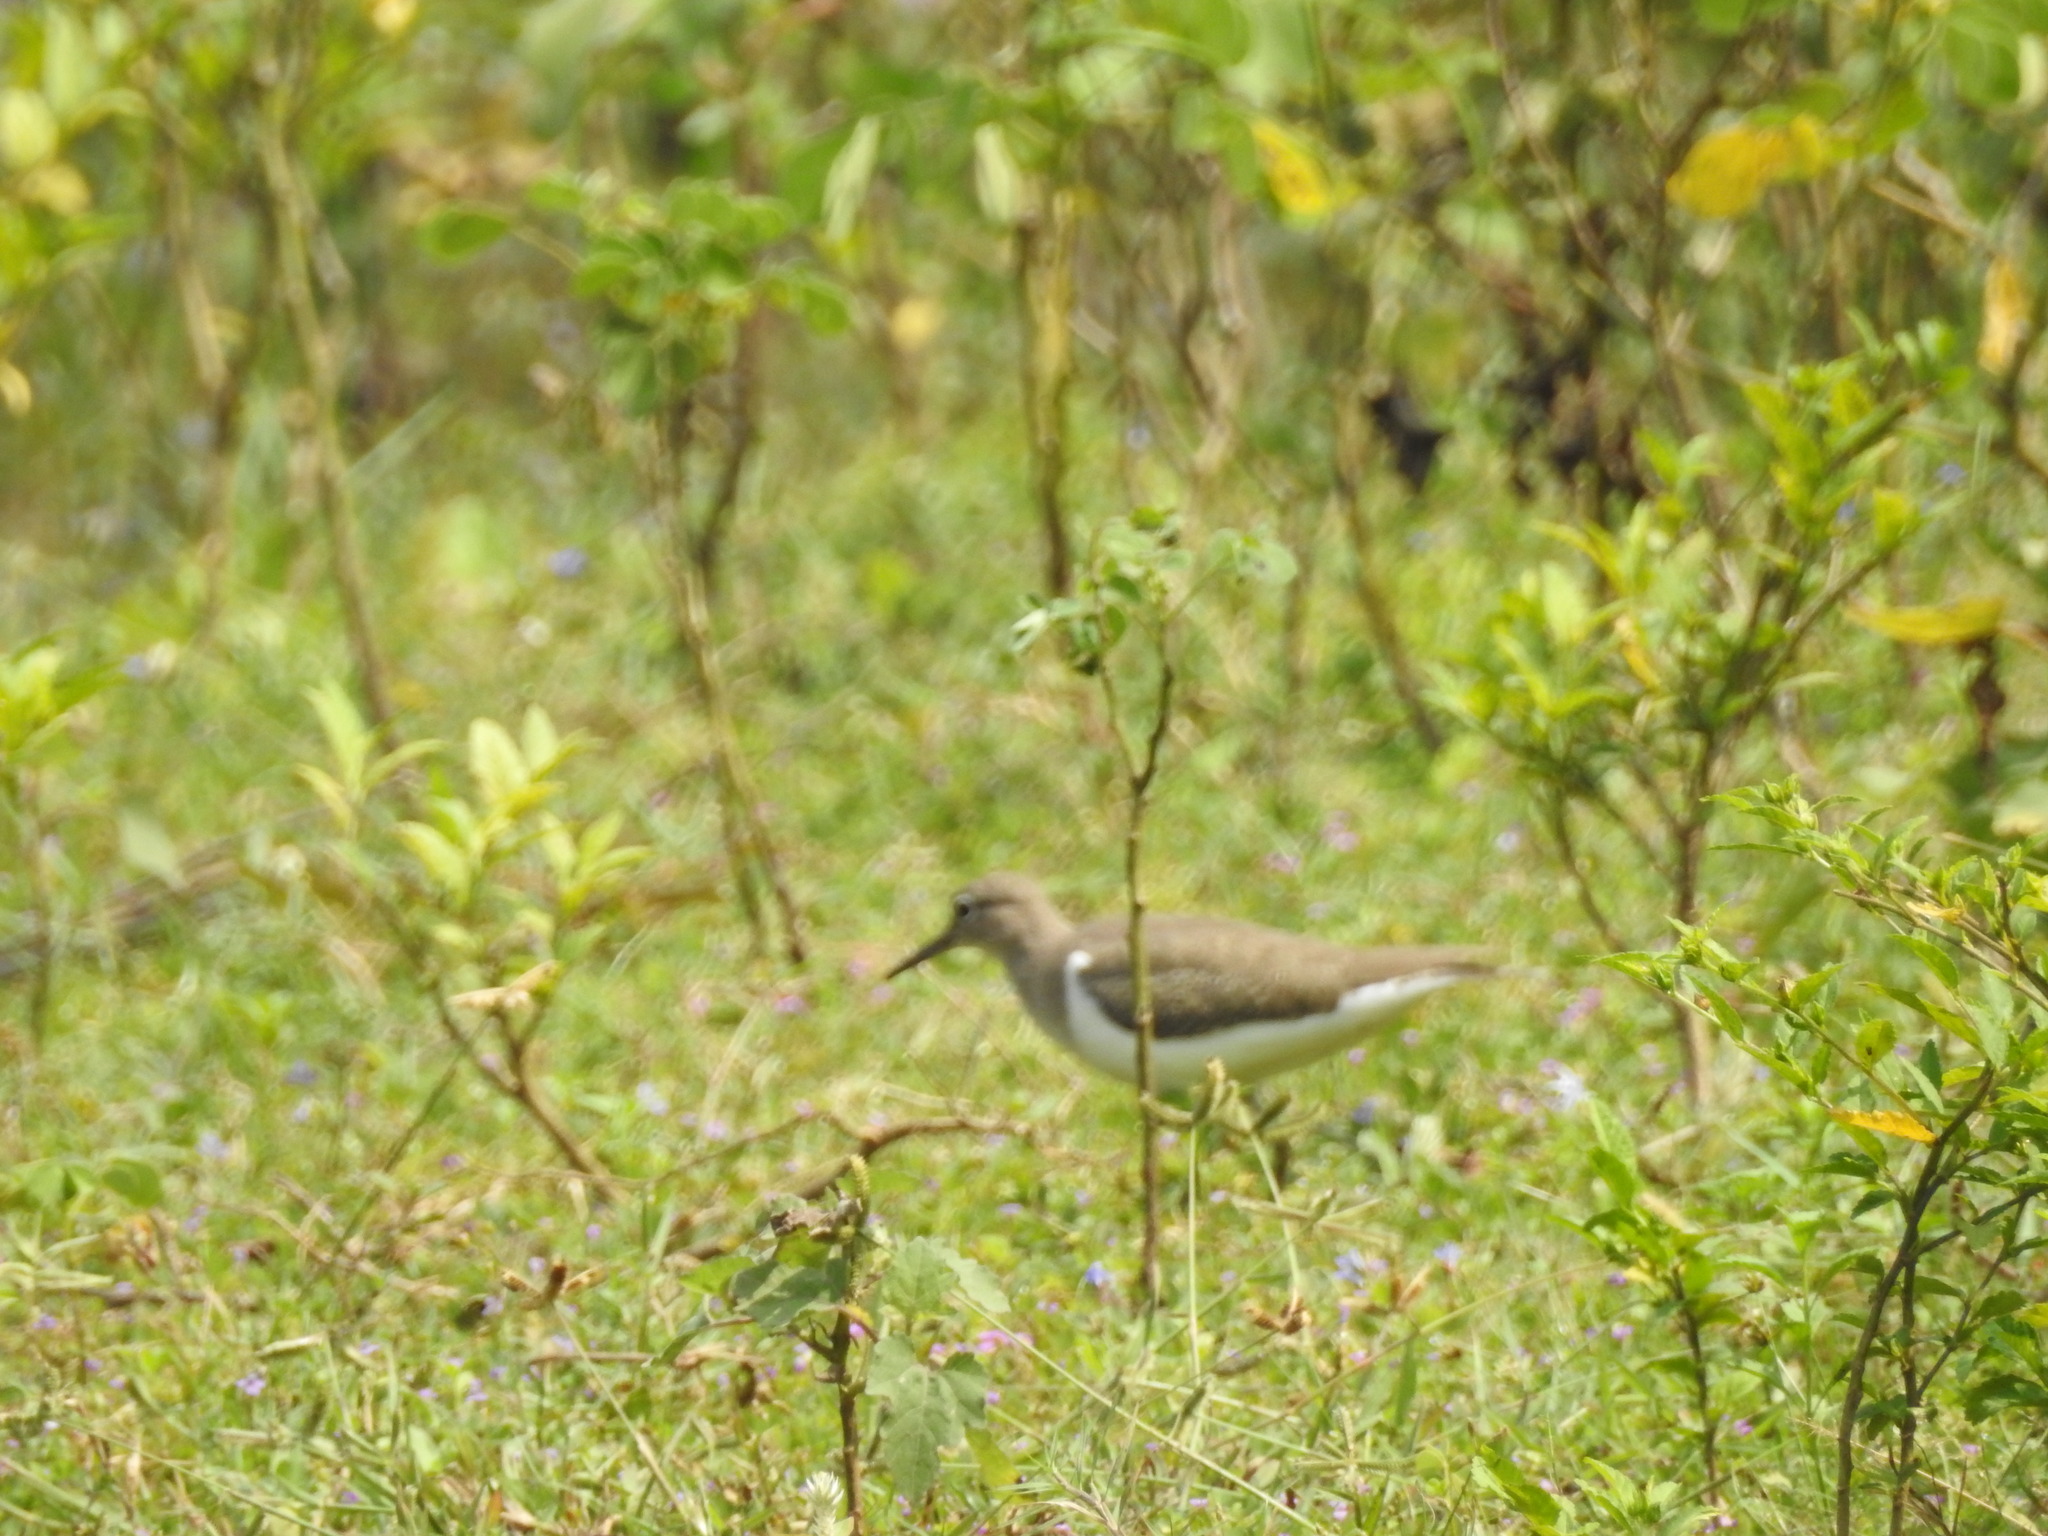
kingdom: Animalia
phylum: Chordata
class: Aves
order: Charadriiformes
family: Scolopacidae
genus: Actitis
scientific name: Actitis hypoleucos
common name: Common sandpiper
